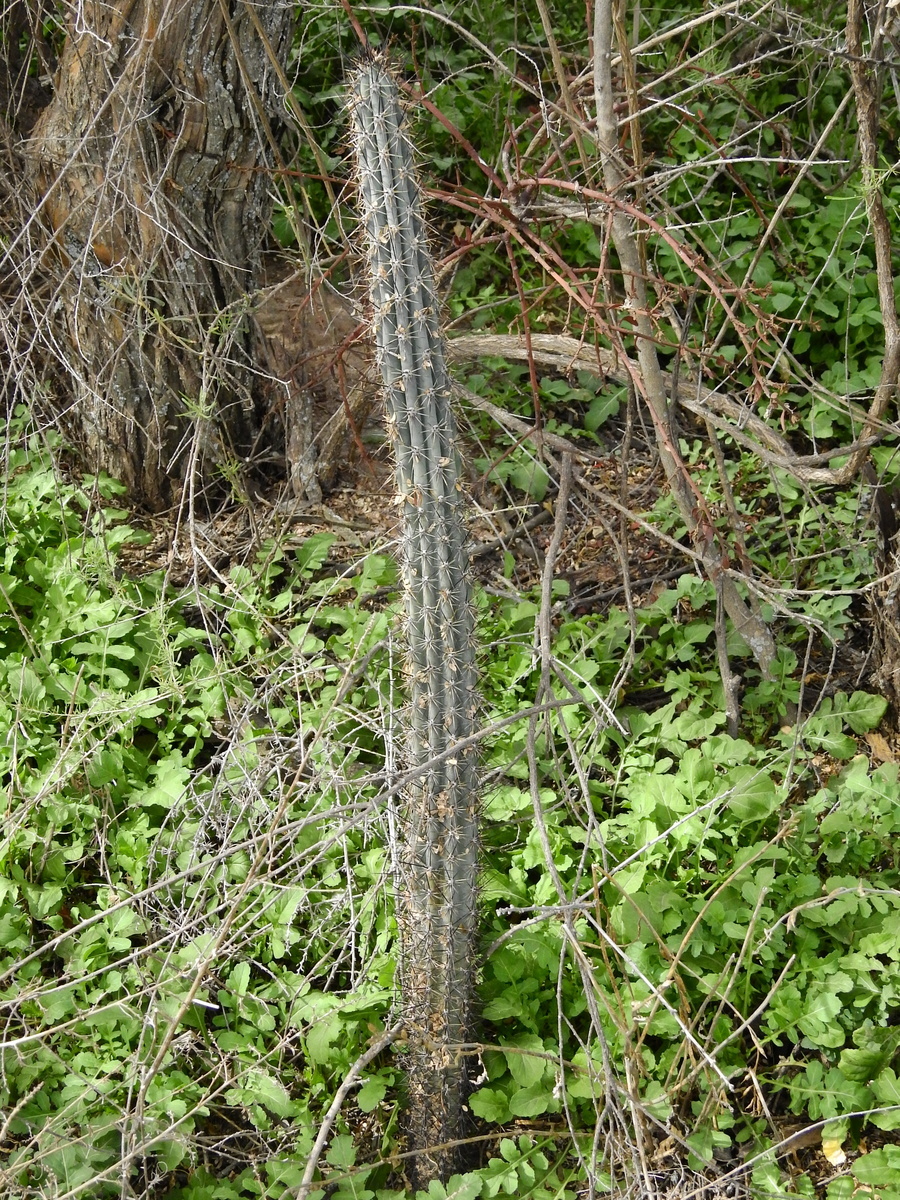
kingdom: Plantae
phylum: Tracheophyta
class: Magnoliopsida
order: Caryophyllales
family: Cactaceae
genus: Cereus
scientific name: Cereus aethiops
